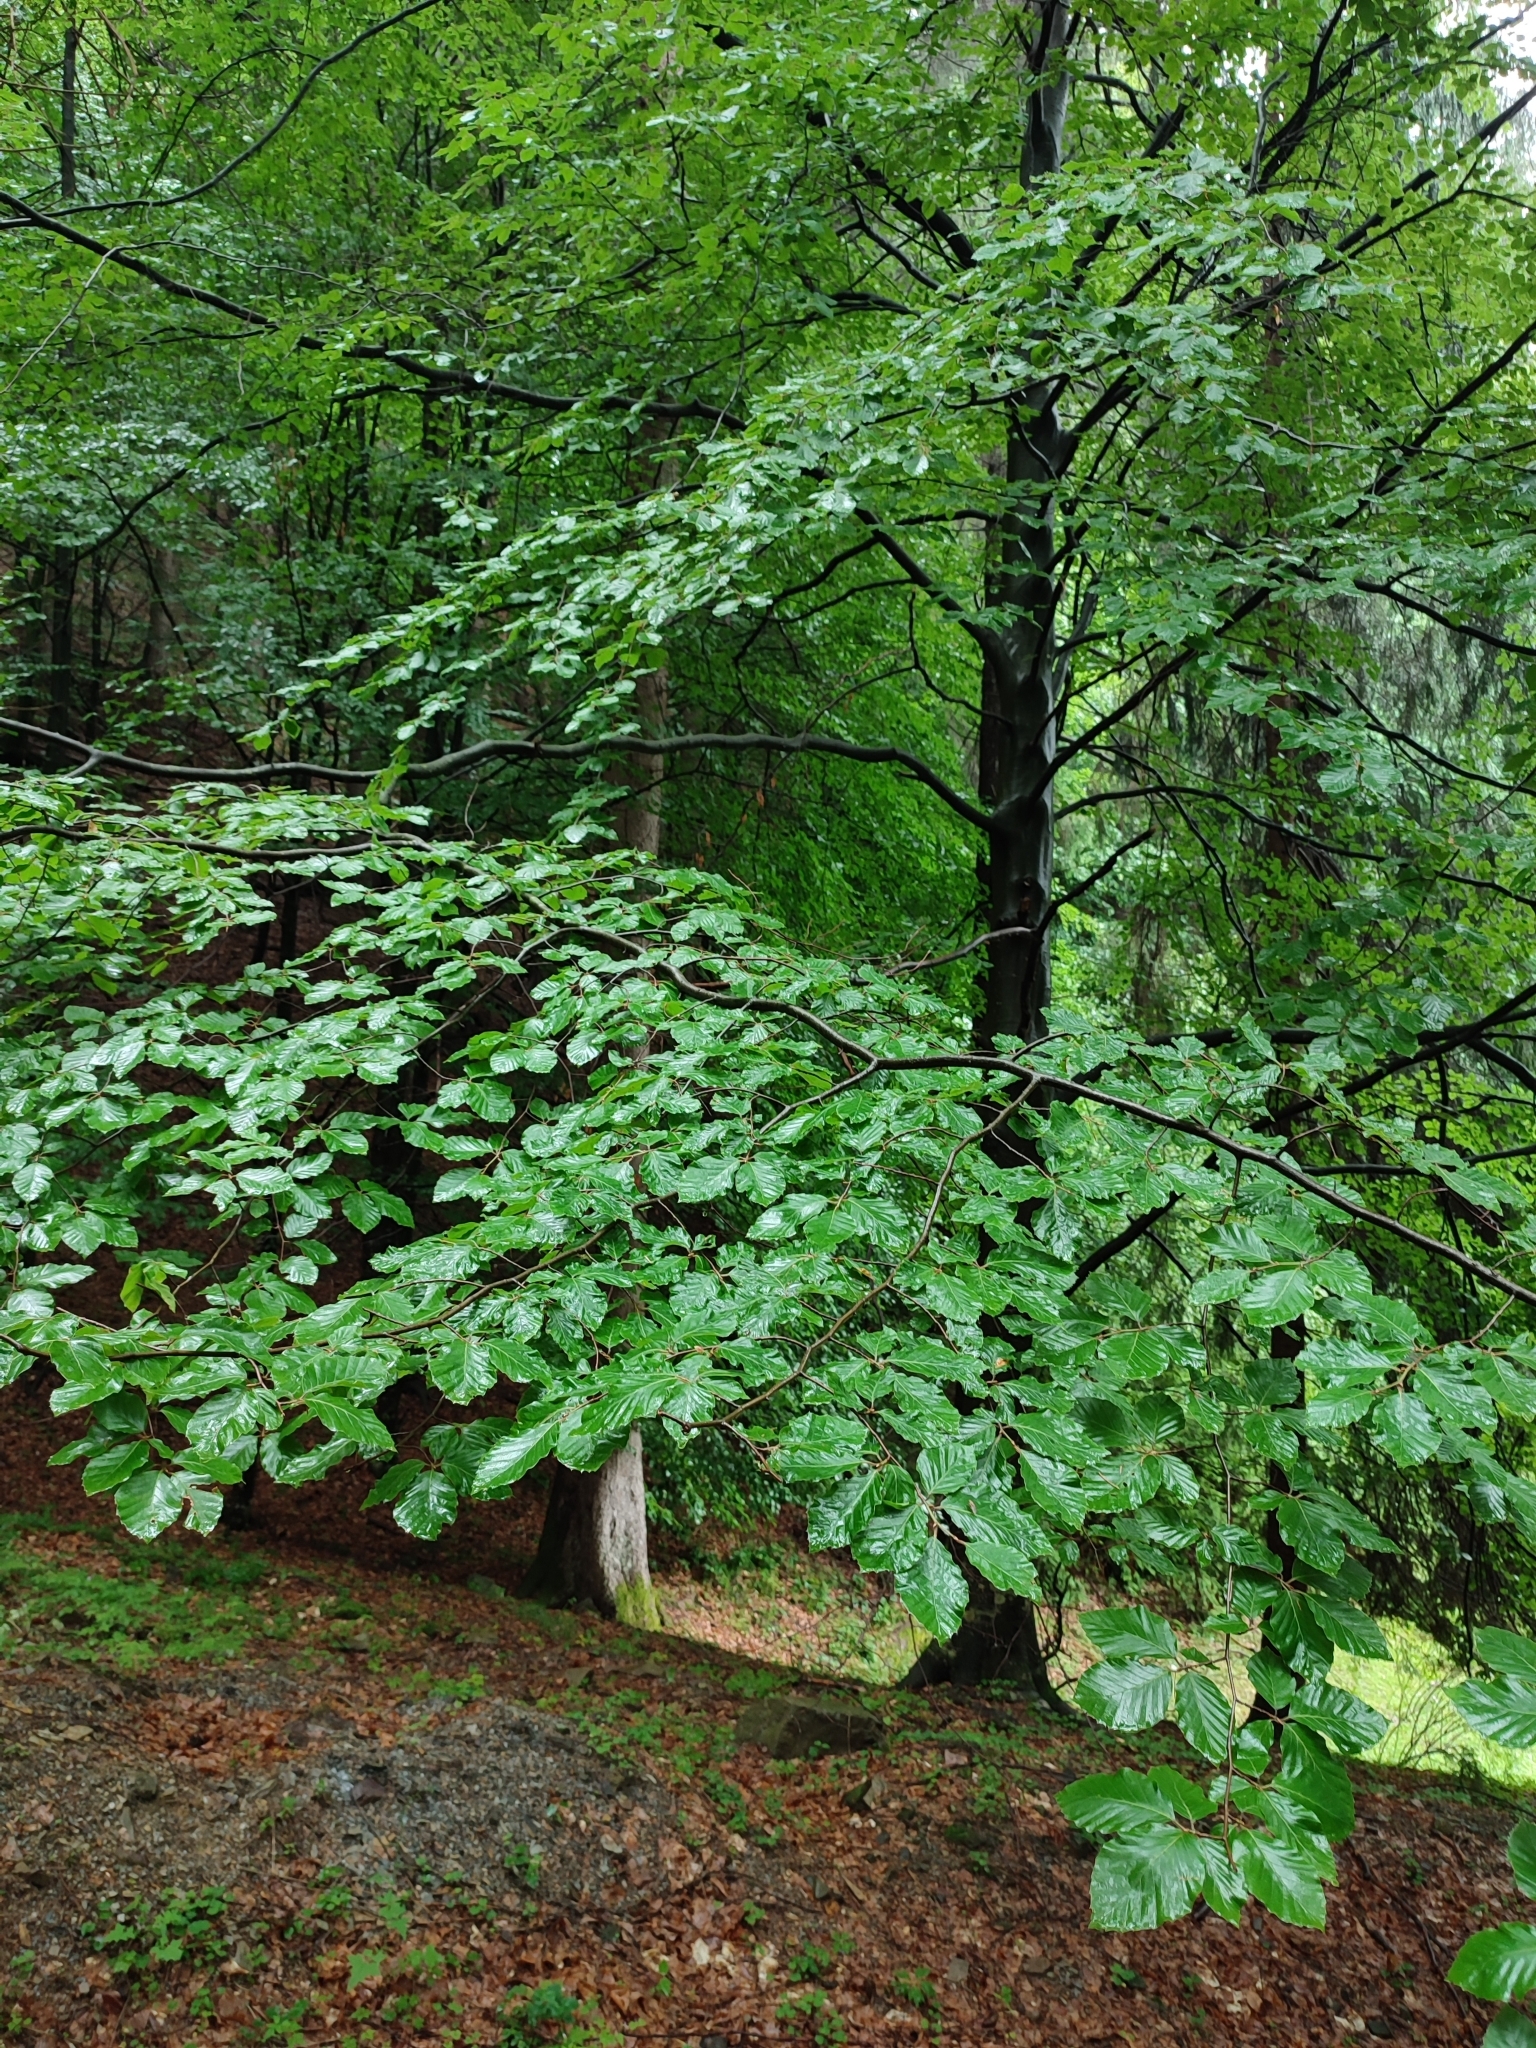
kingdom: Plantae
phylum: Tracheophyta
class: Magnoliopsida
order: Fagales
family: Fagaceae
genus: Fagus
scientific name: Fagus sylvatica
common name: Beech
